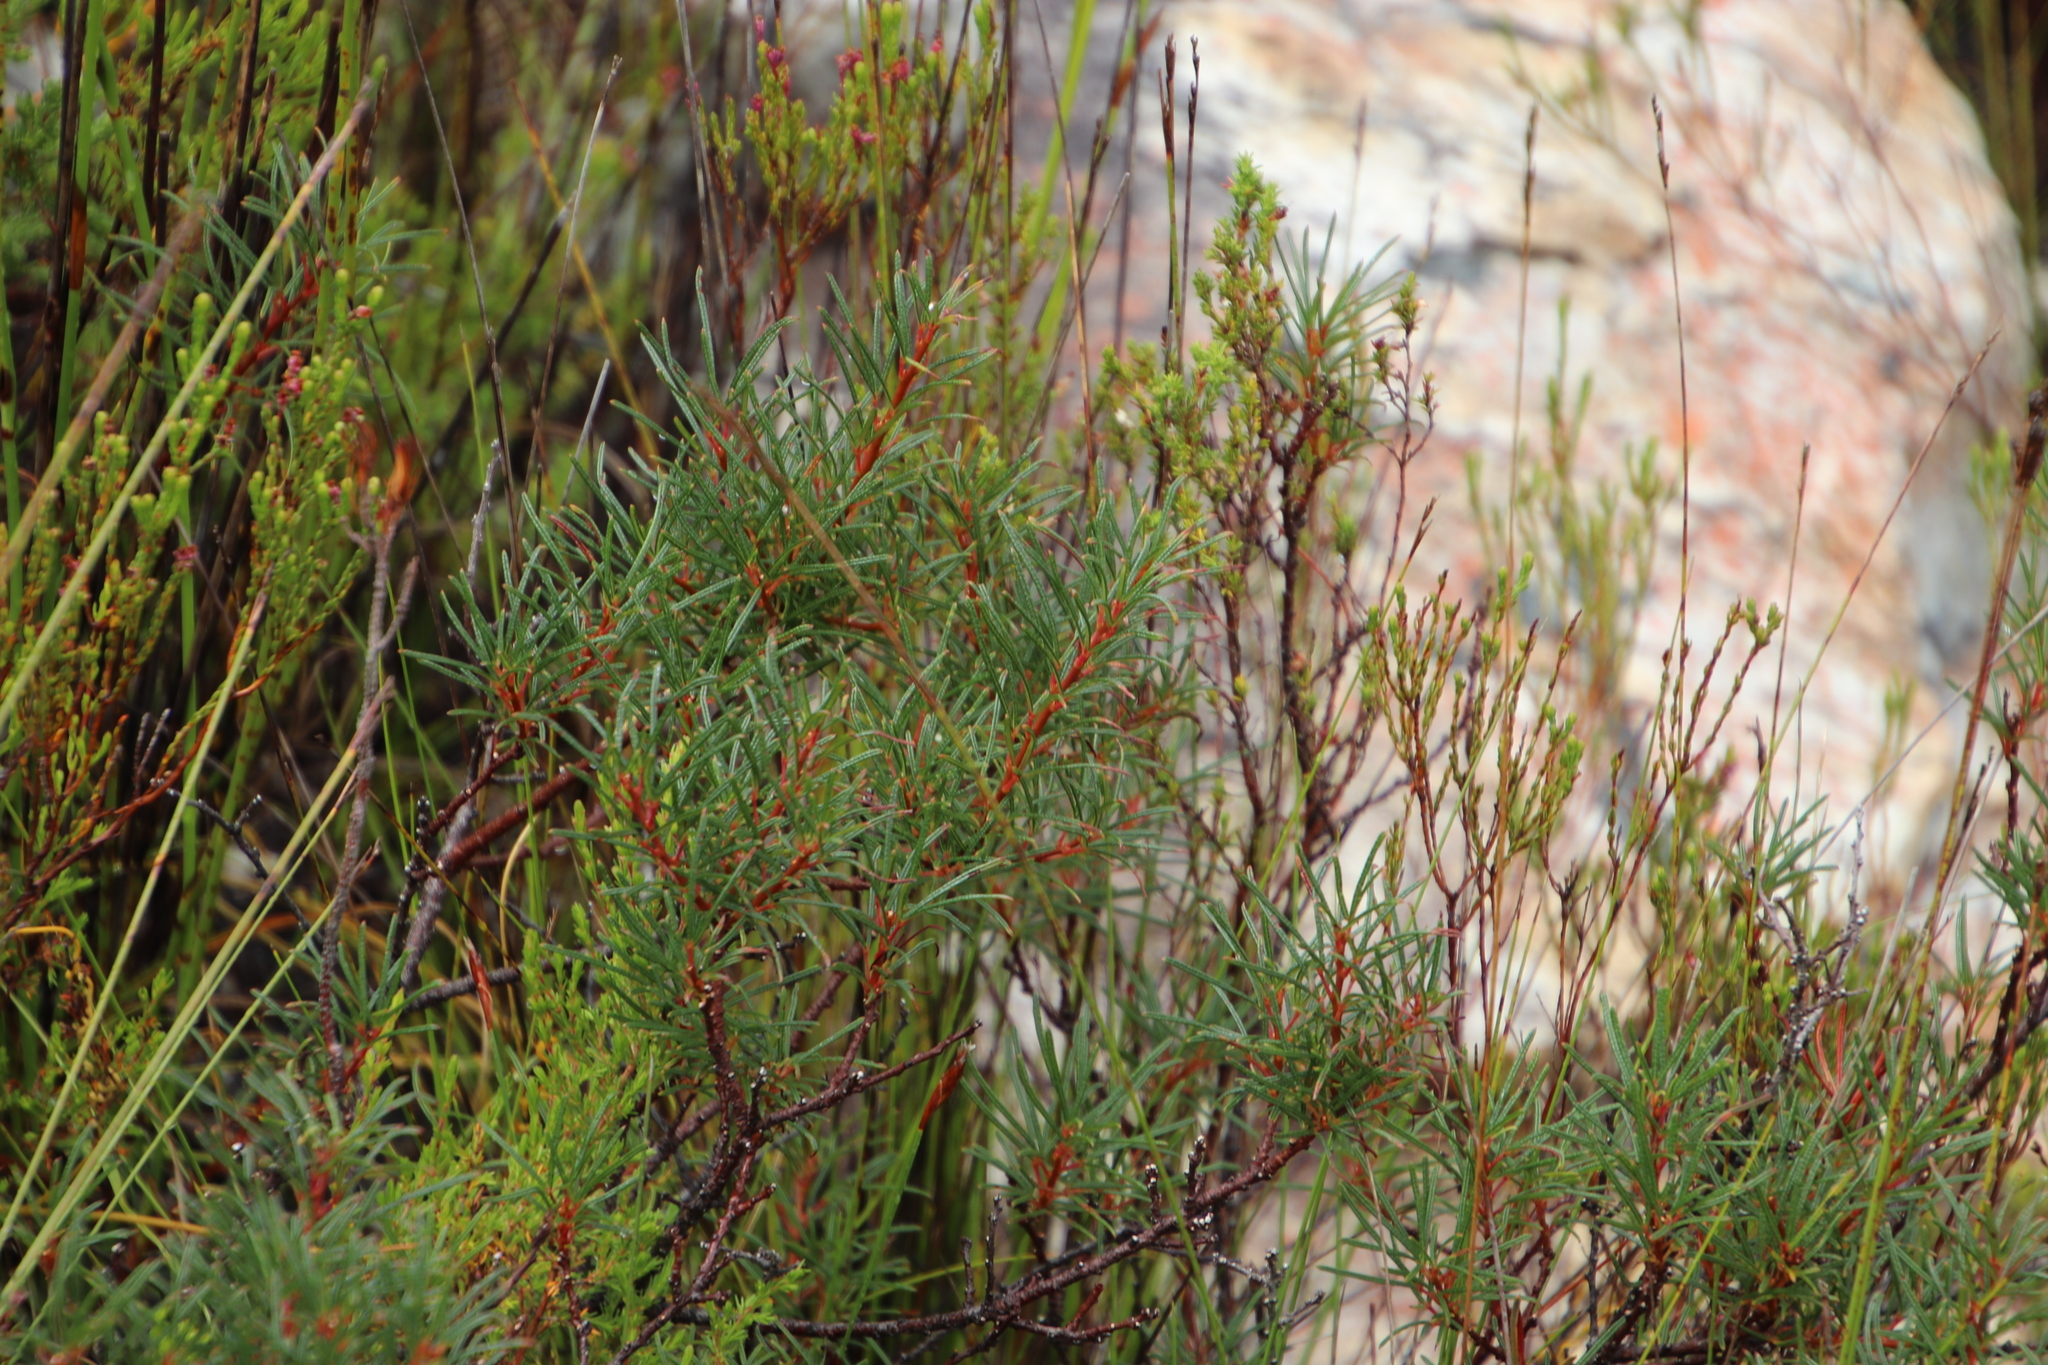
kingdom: Plantae
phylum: Tracheophyta
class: Magnoliopsida
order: Sapindales
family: Anacardiaceae
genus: Searsia
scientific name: Searsia rosmarinifolia
